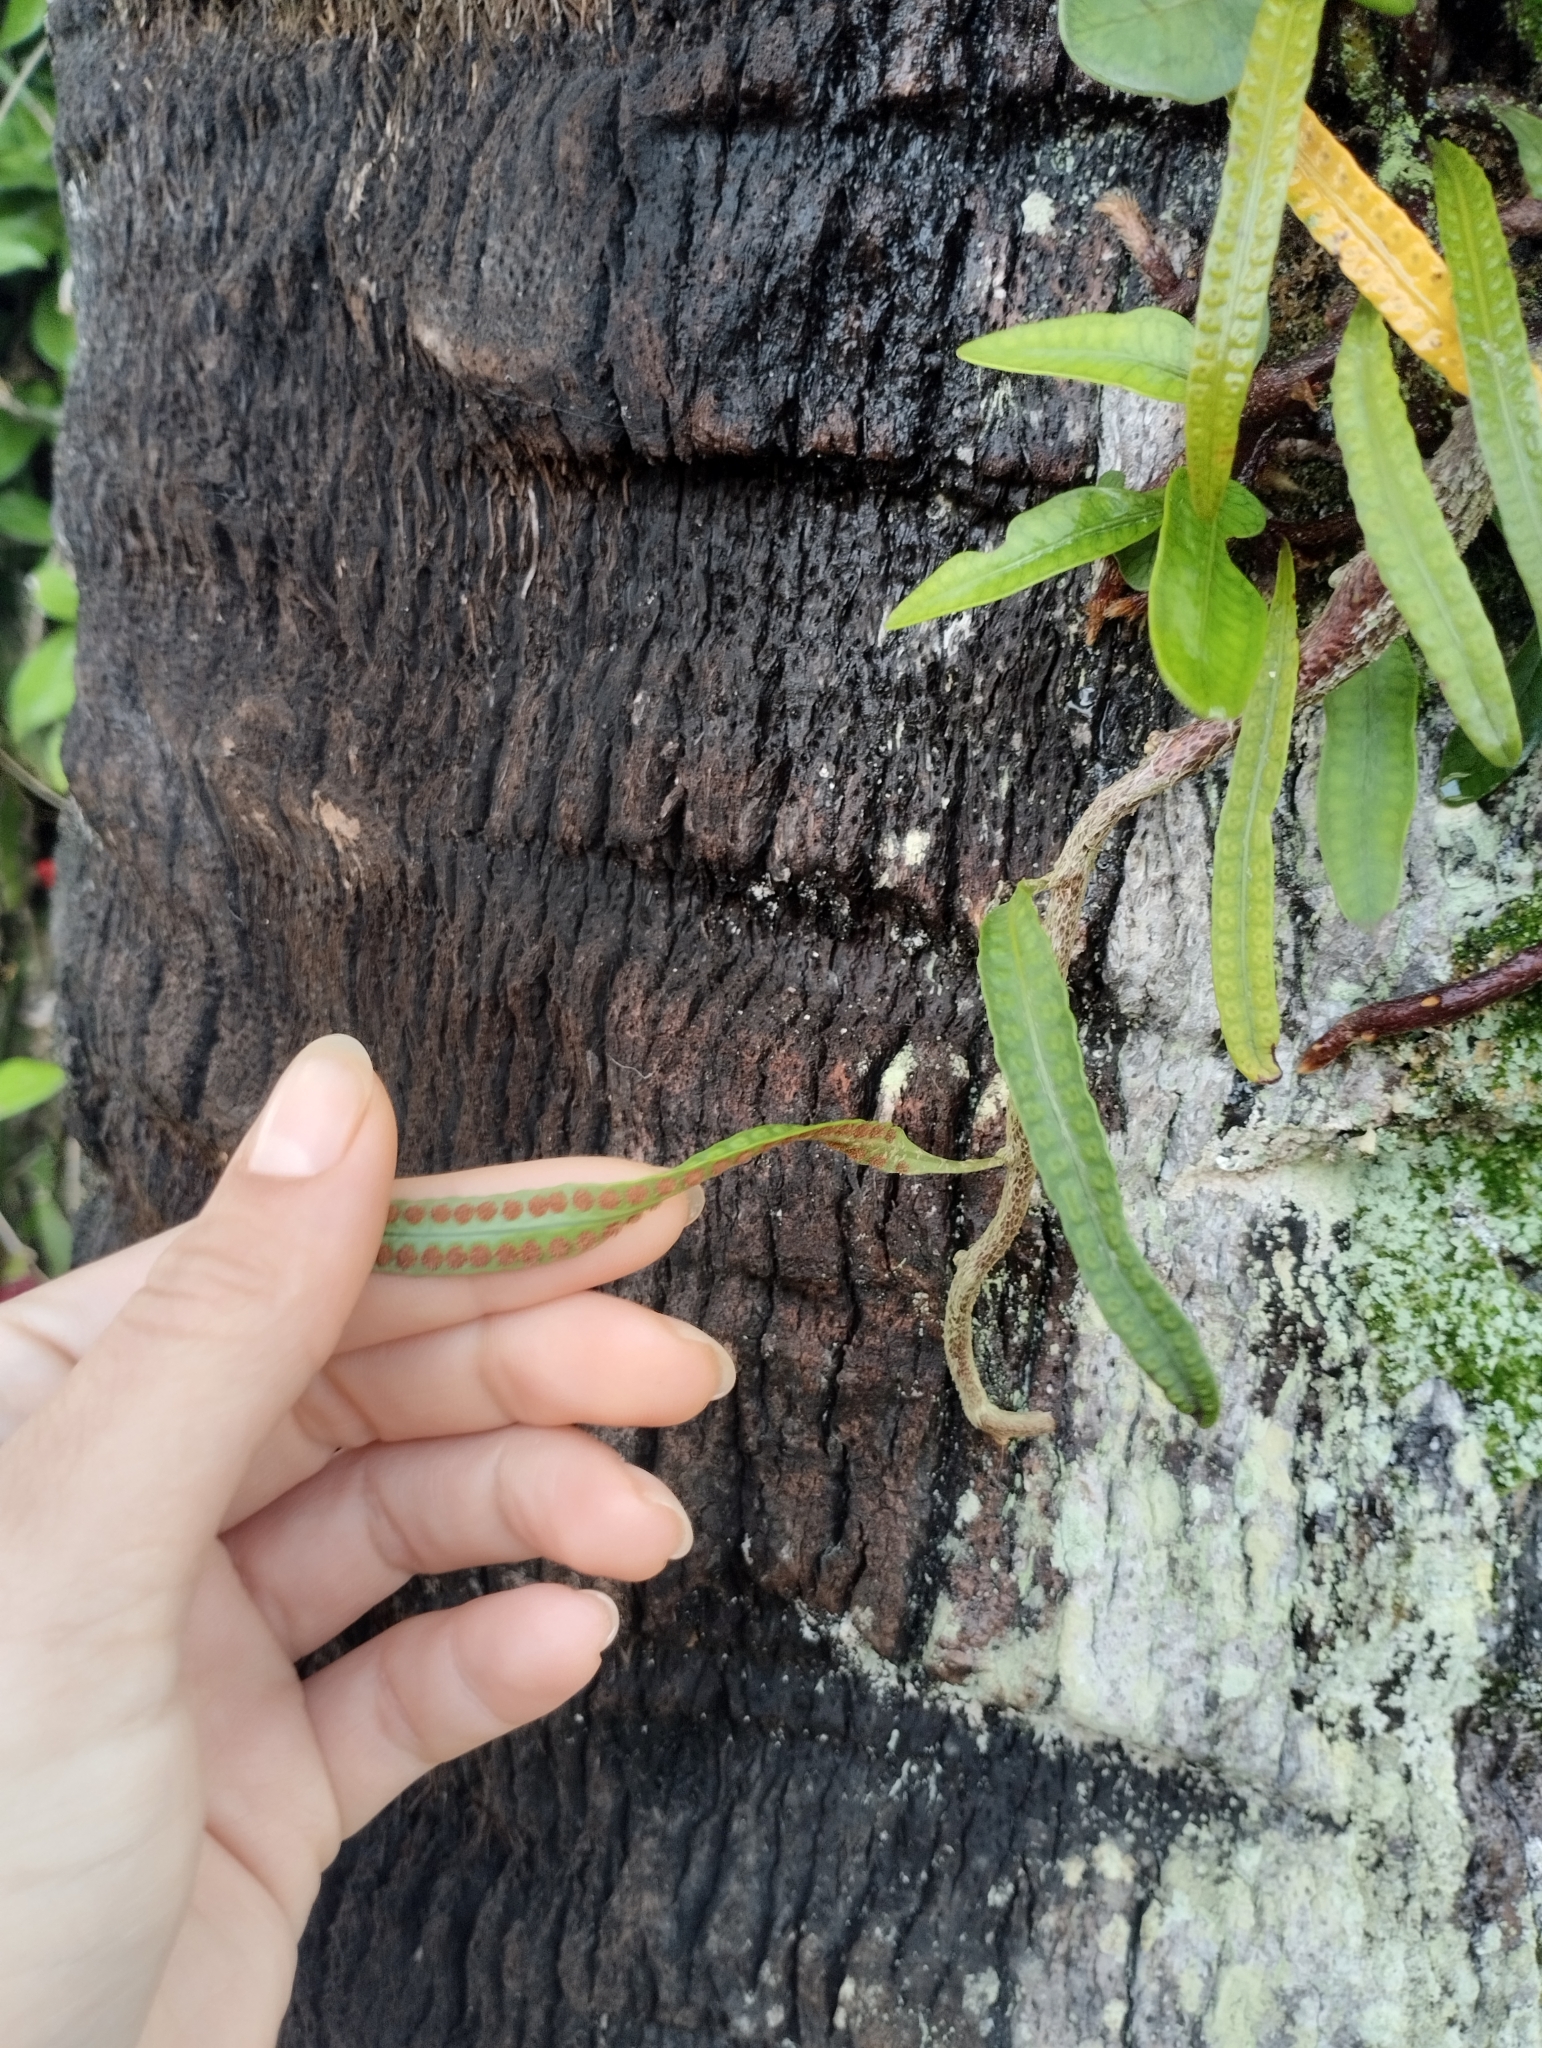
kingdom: Plantae
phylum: Tracheophyta
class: Polypodiopsida
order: Polypodiales
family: Polypodiaceae
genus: Microgramma
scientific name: Microgramma squamulosa
